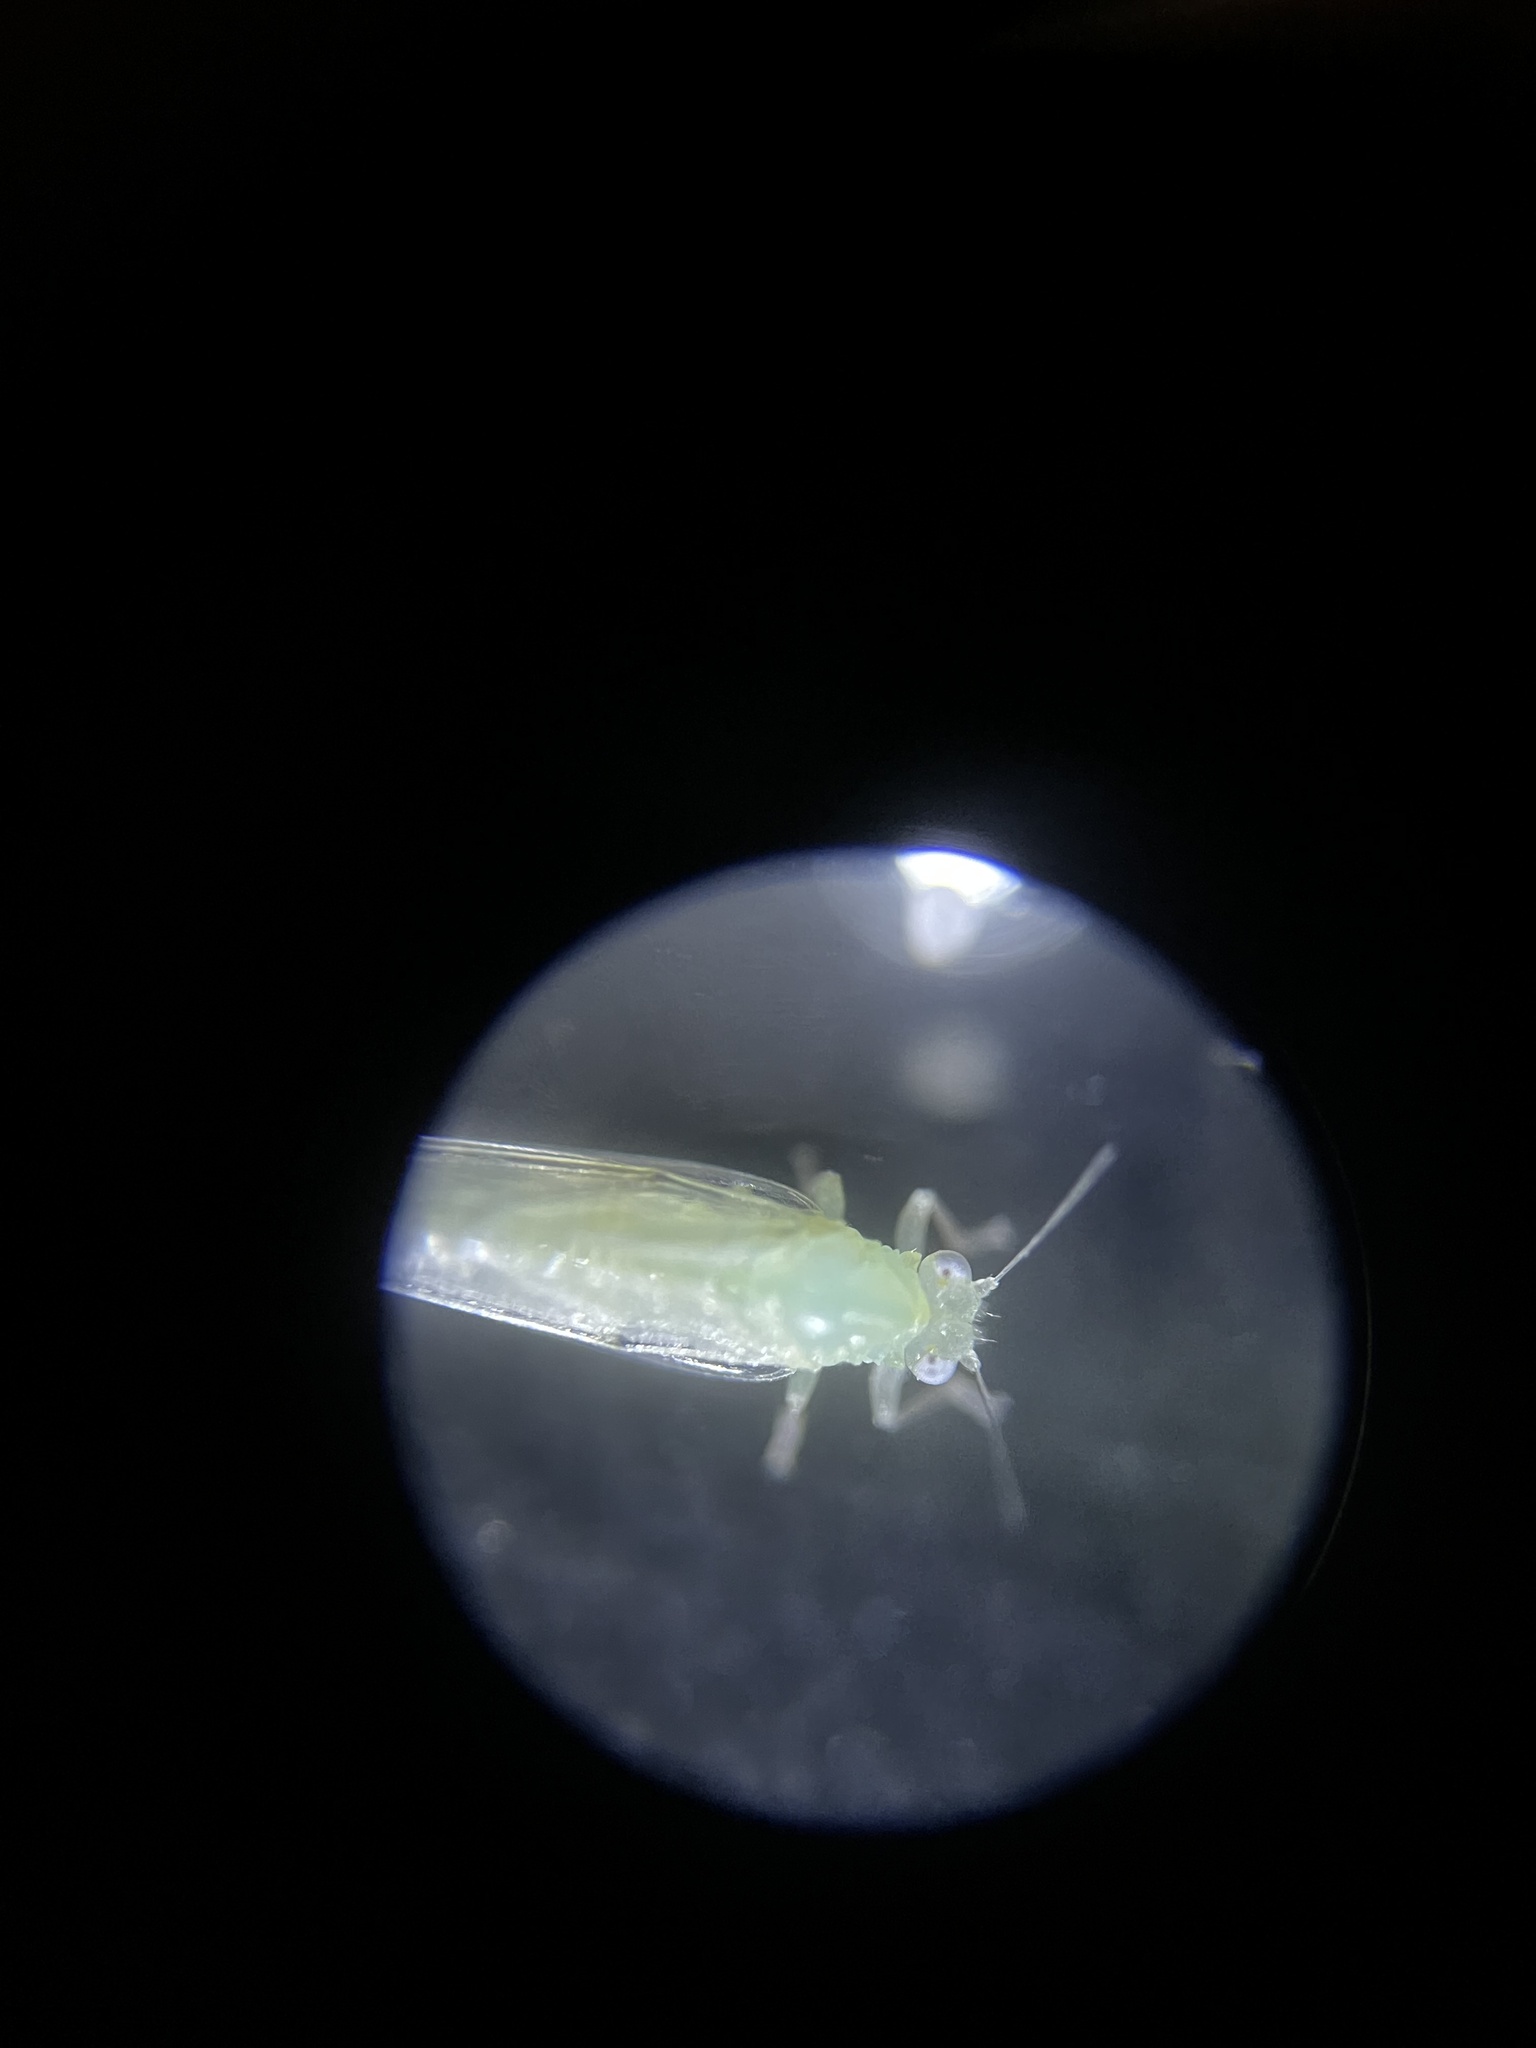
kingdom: Animalia
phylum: Arthropoda
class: Insecta
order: Hemiptera
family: Triozidae
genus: Powellia
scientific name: Powellia vitreoradiata
